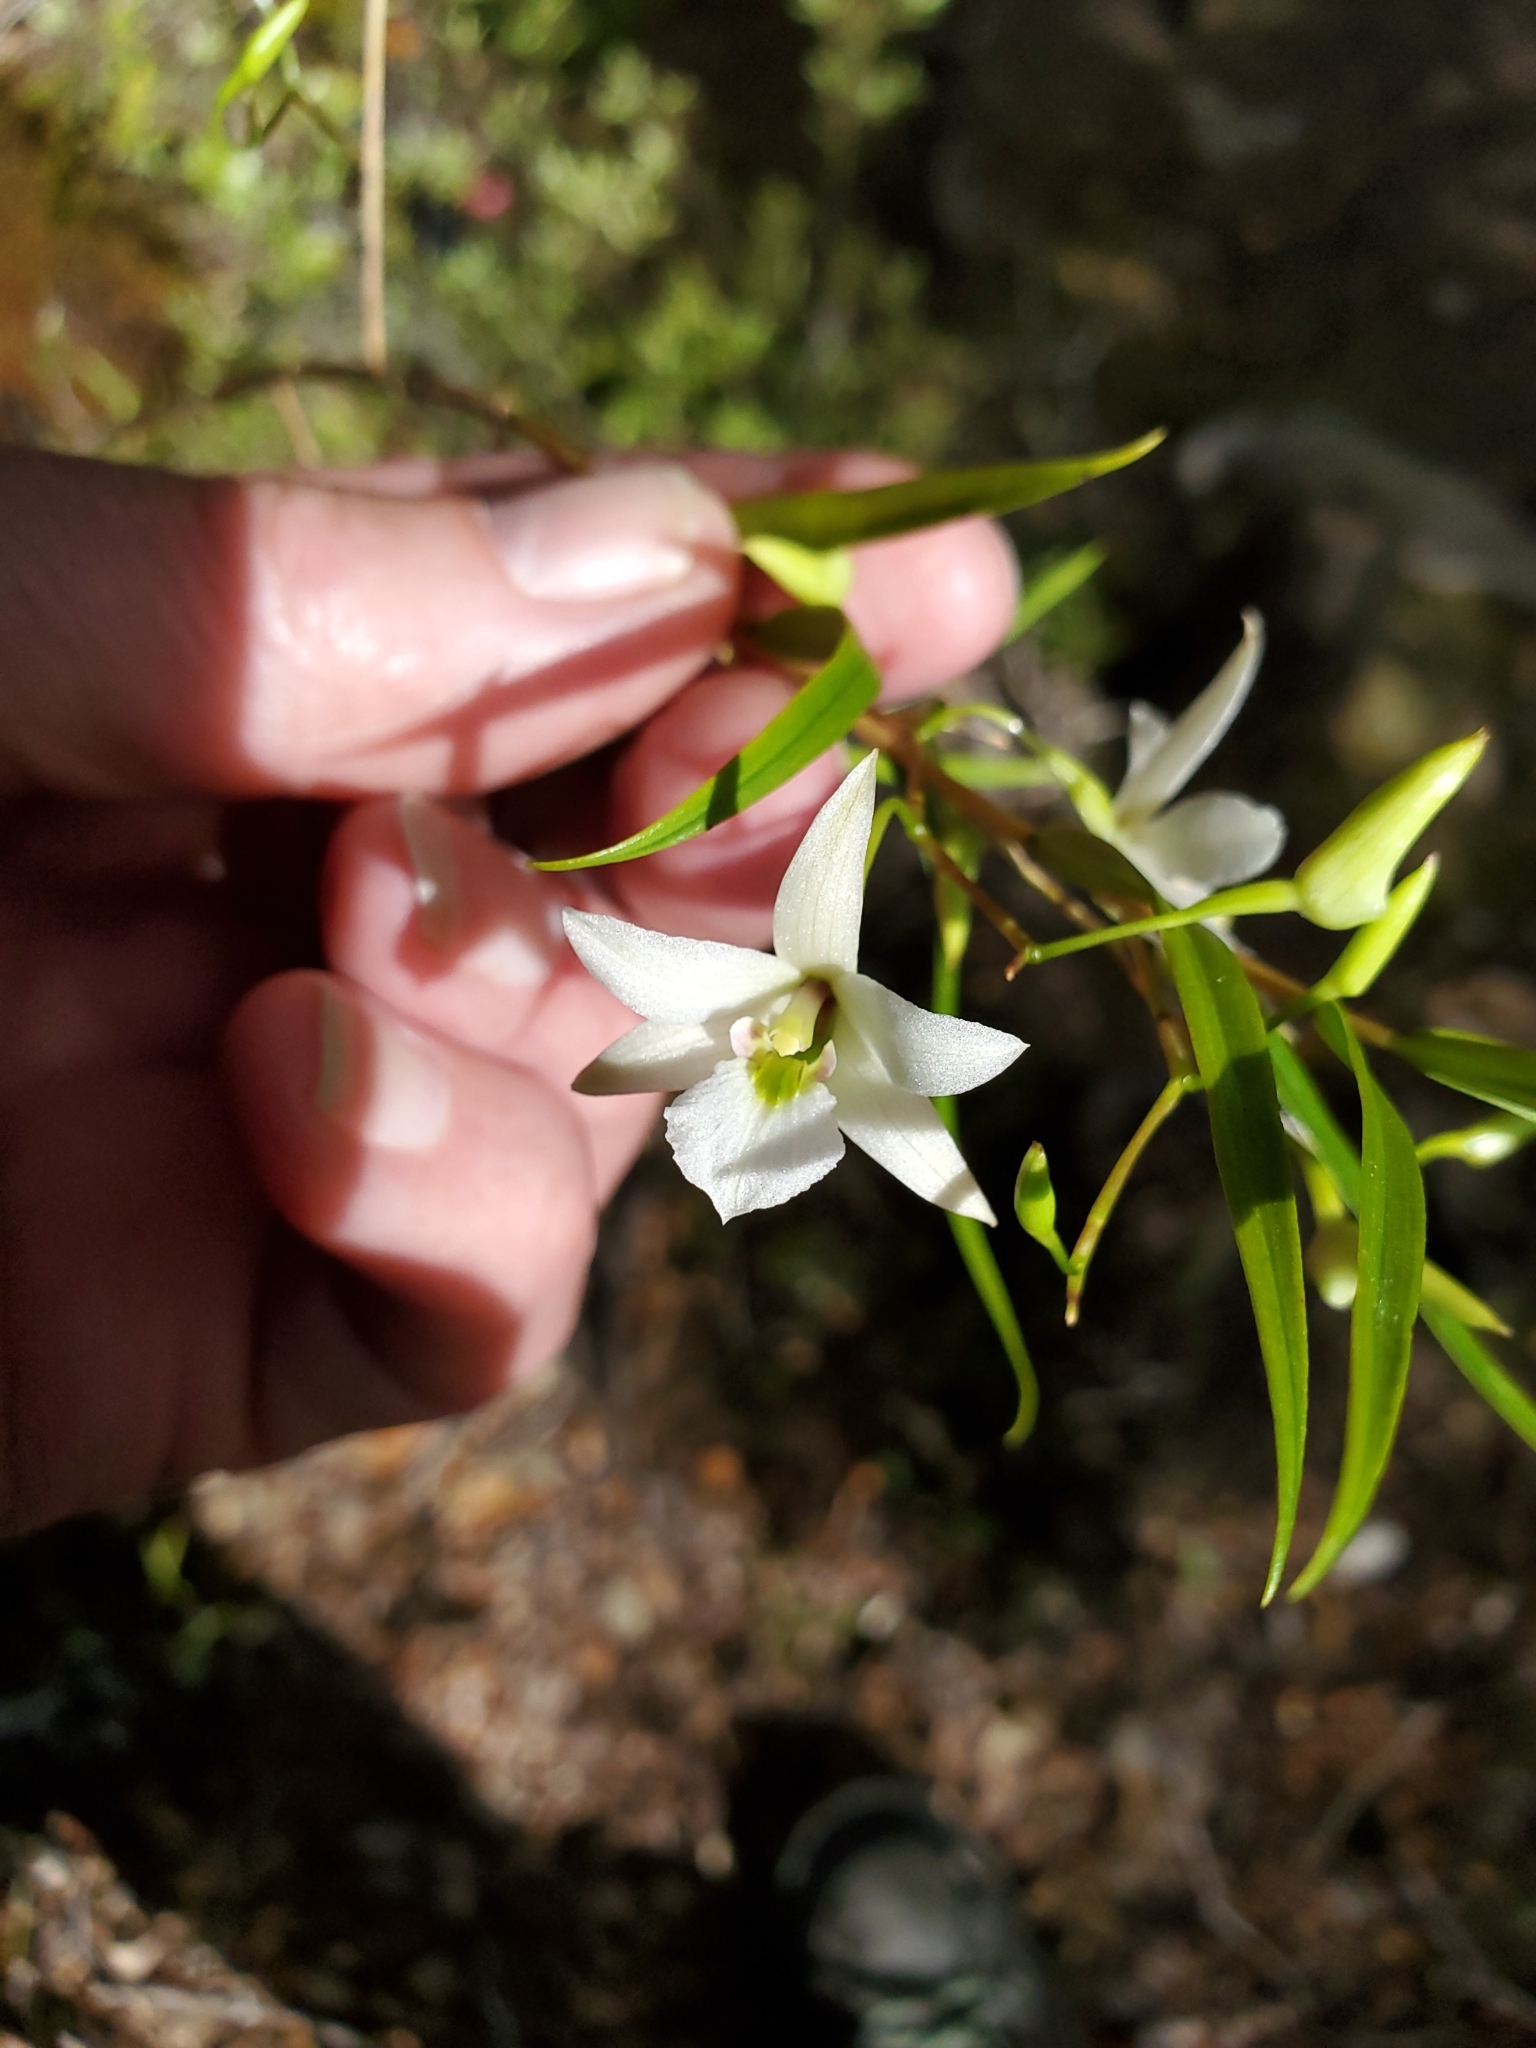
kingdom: Plantae
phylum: Tracheophyta
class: Liliopsida
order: Asparagales
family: Orchidaceae
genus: Dendrobium
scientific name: Dendrobium cunninghamii
